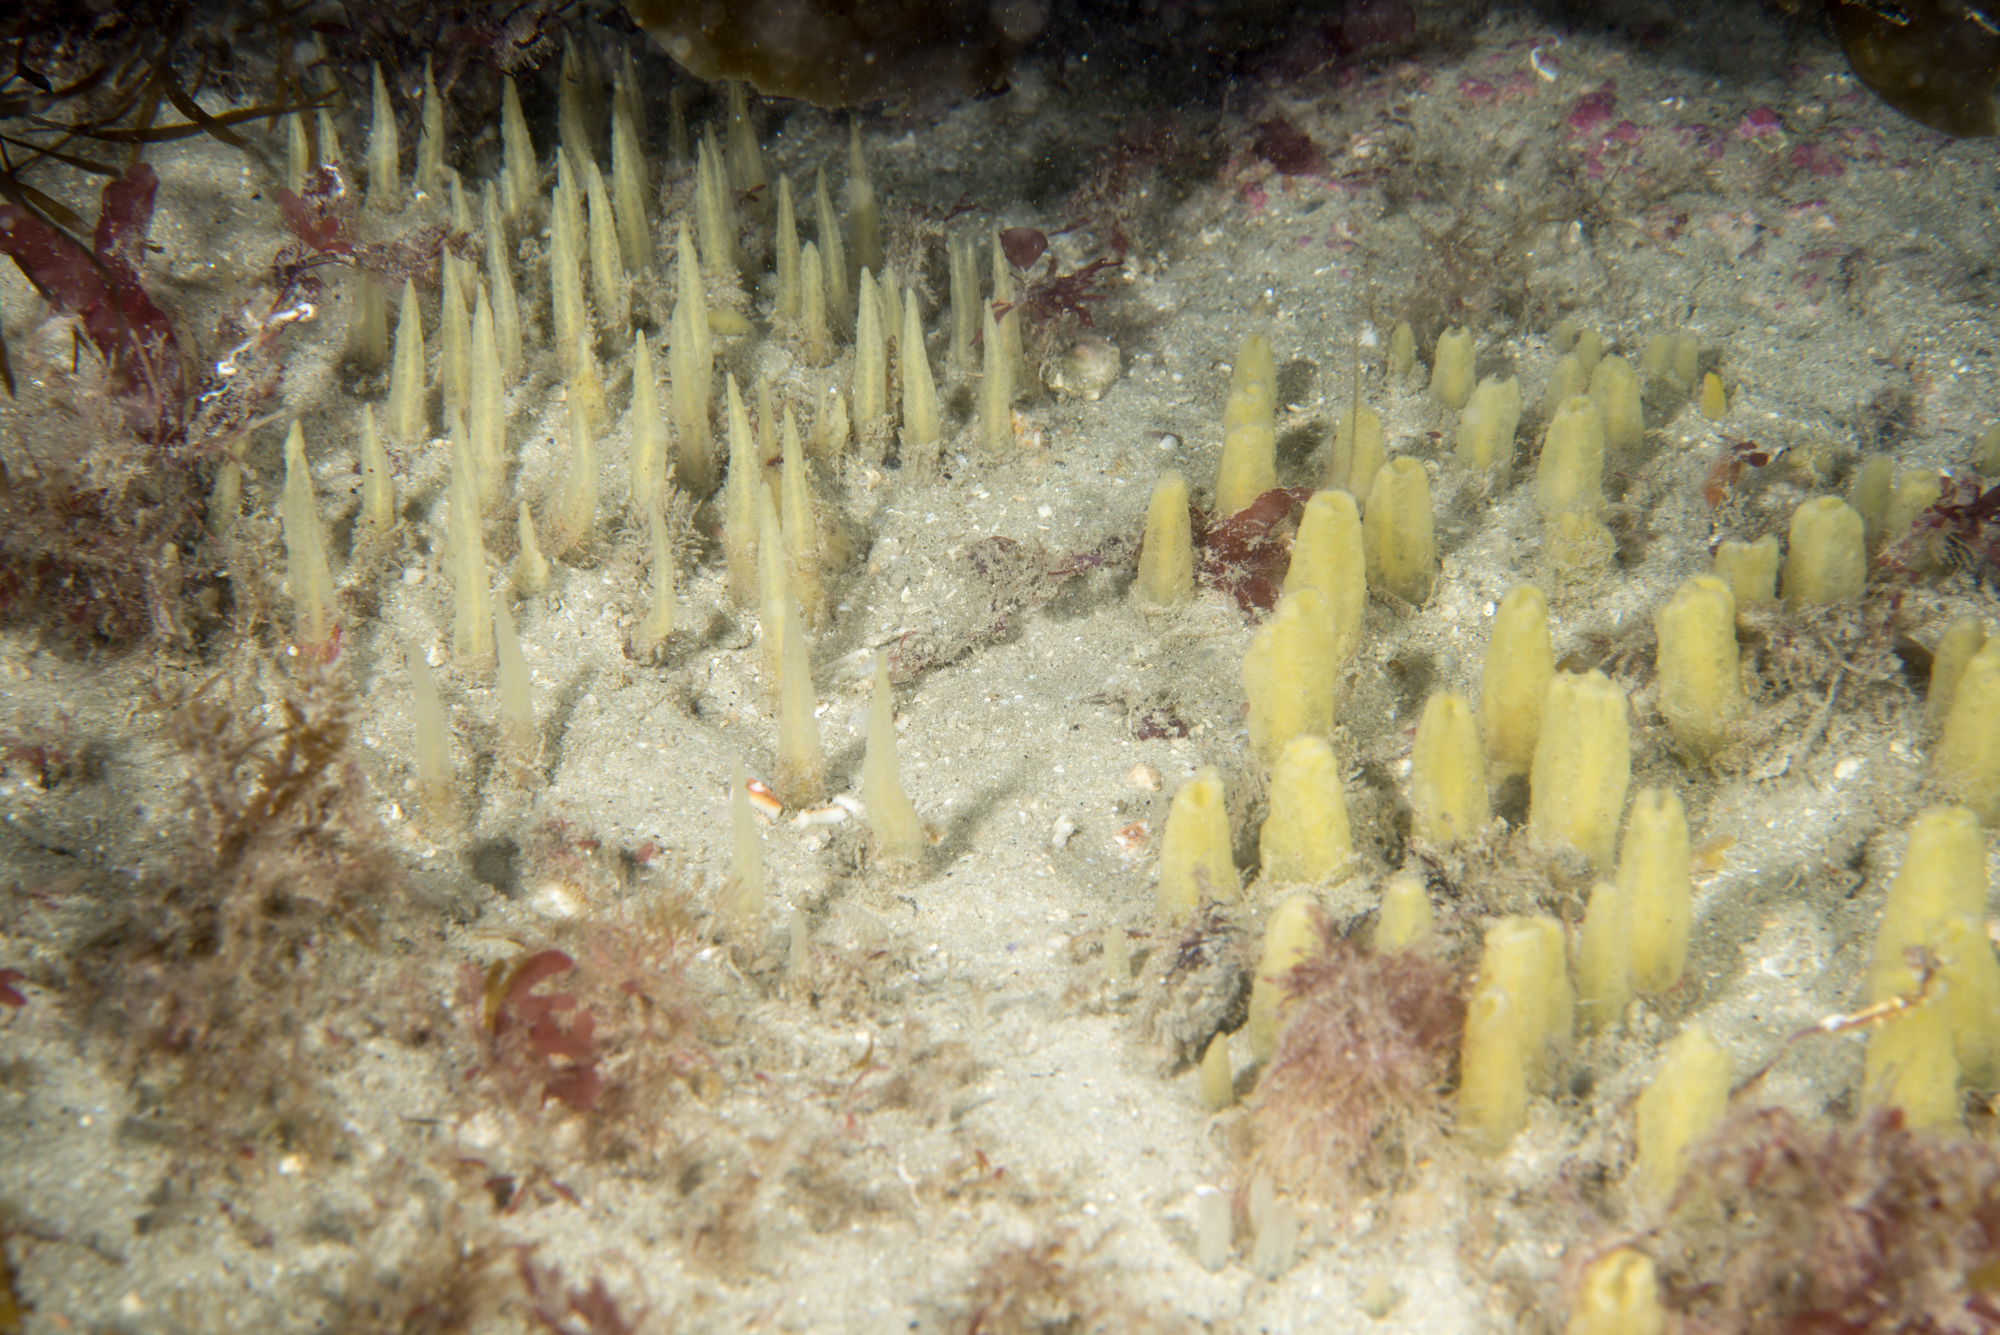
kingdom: Animalia
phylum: Porifera
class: Demospongiae
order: Suberitida
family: Halichondriidae
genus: Ciocalypta
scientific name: Ciocalypta penicillus
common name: Brush sponge
